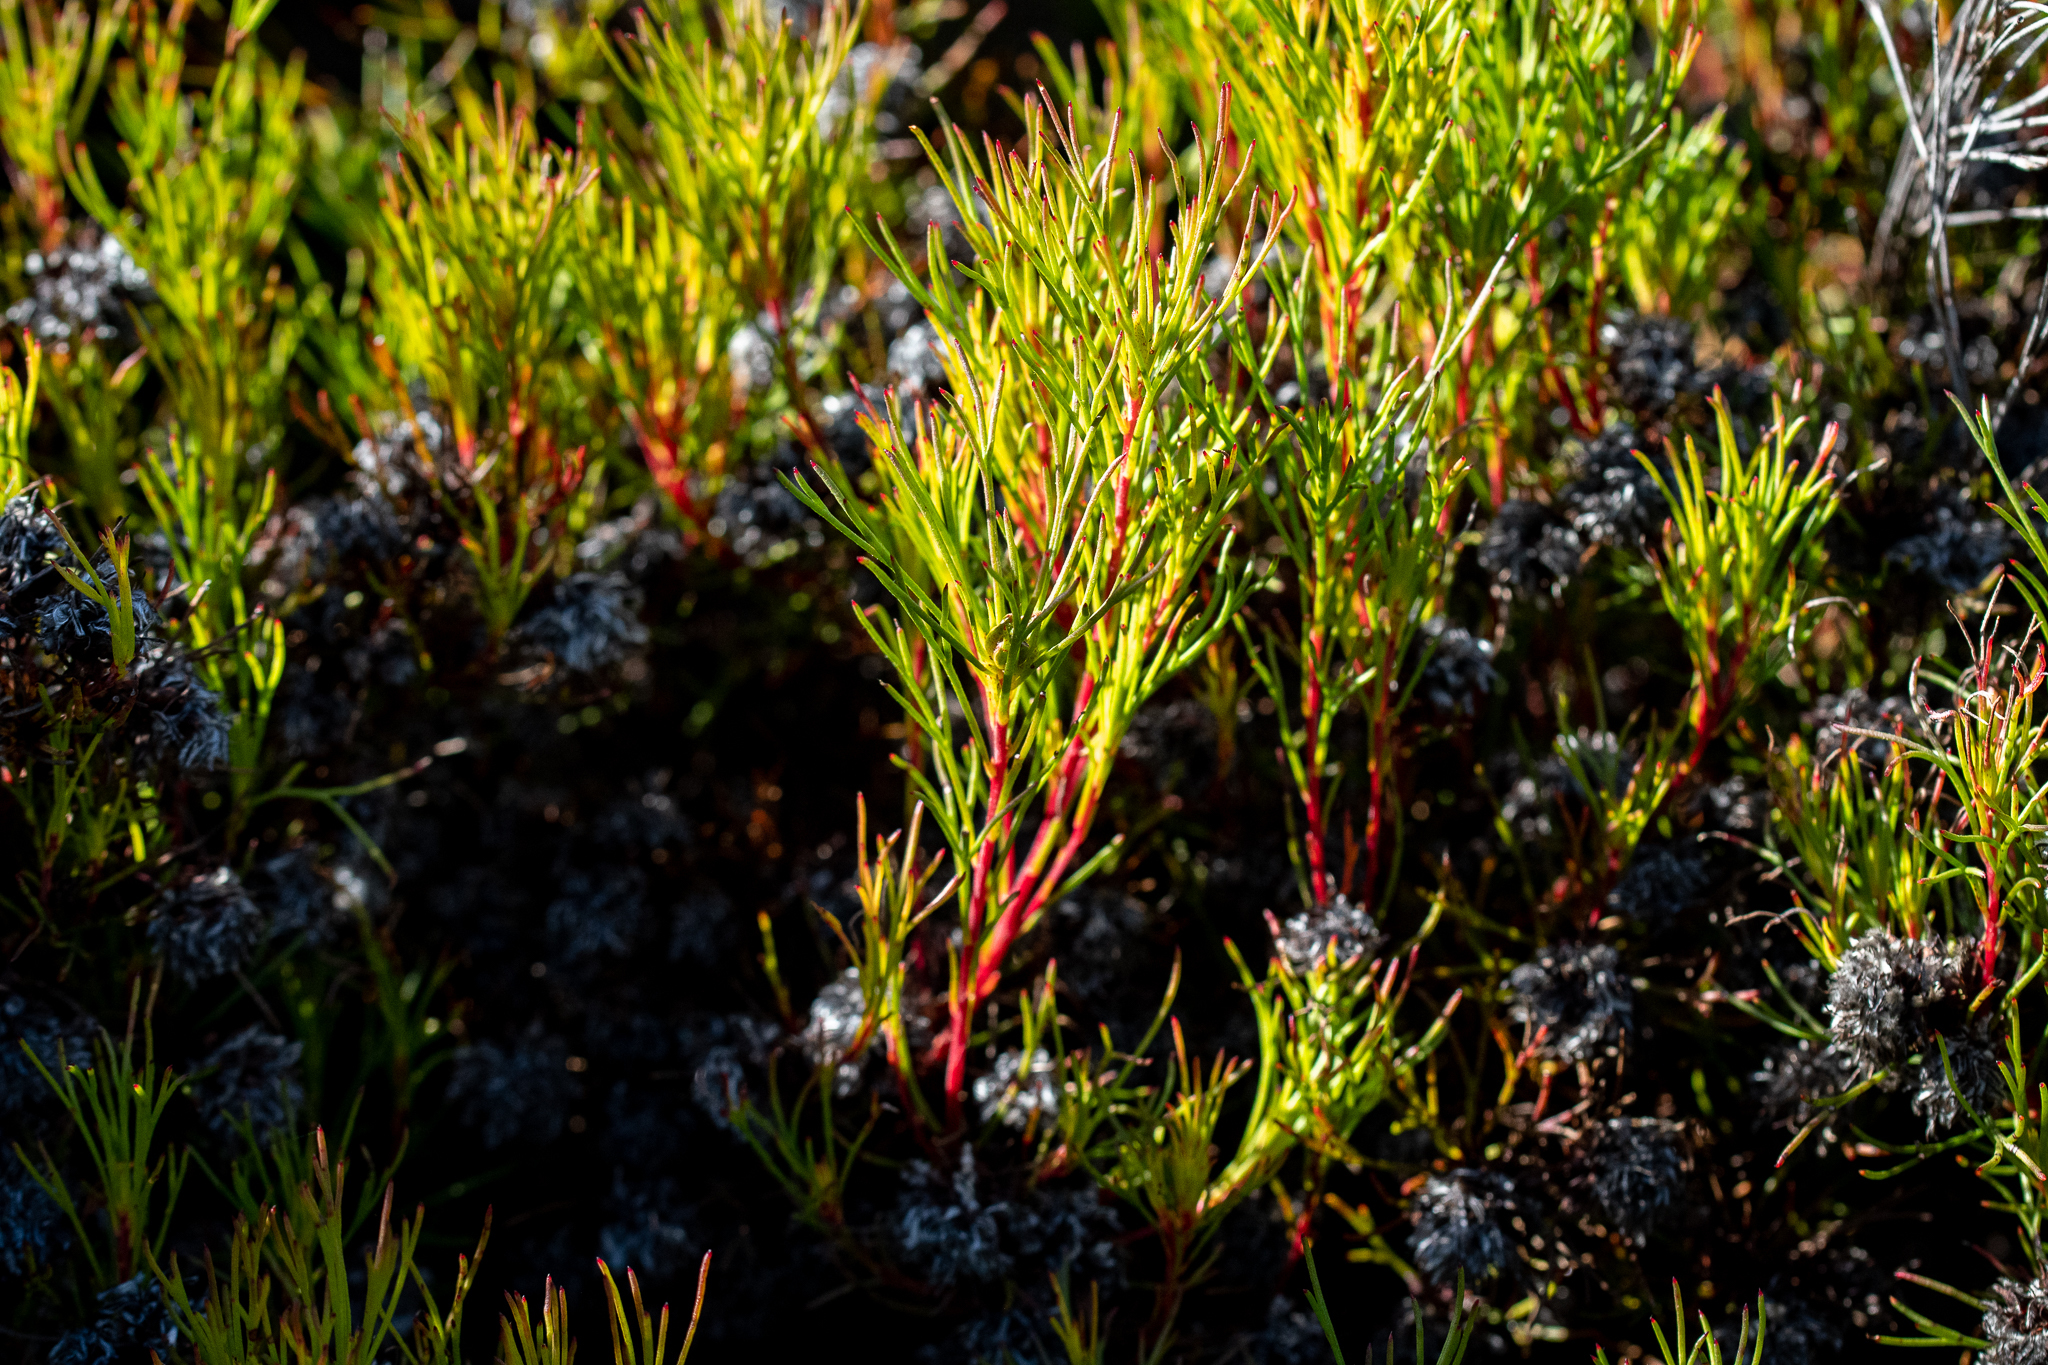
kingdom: Plantae
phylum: Tracheophyta
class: Magnoliopsida
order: Proteales
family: Proteaceae
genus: Serruria
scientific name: Serruria nervosa
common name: Fluted spiderhead
